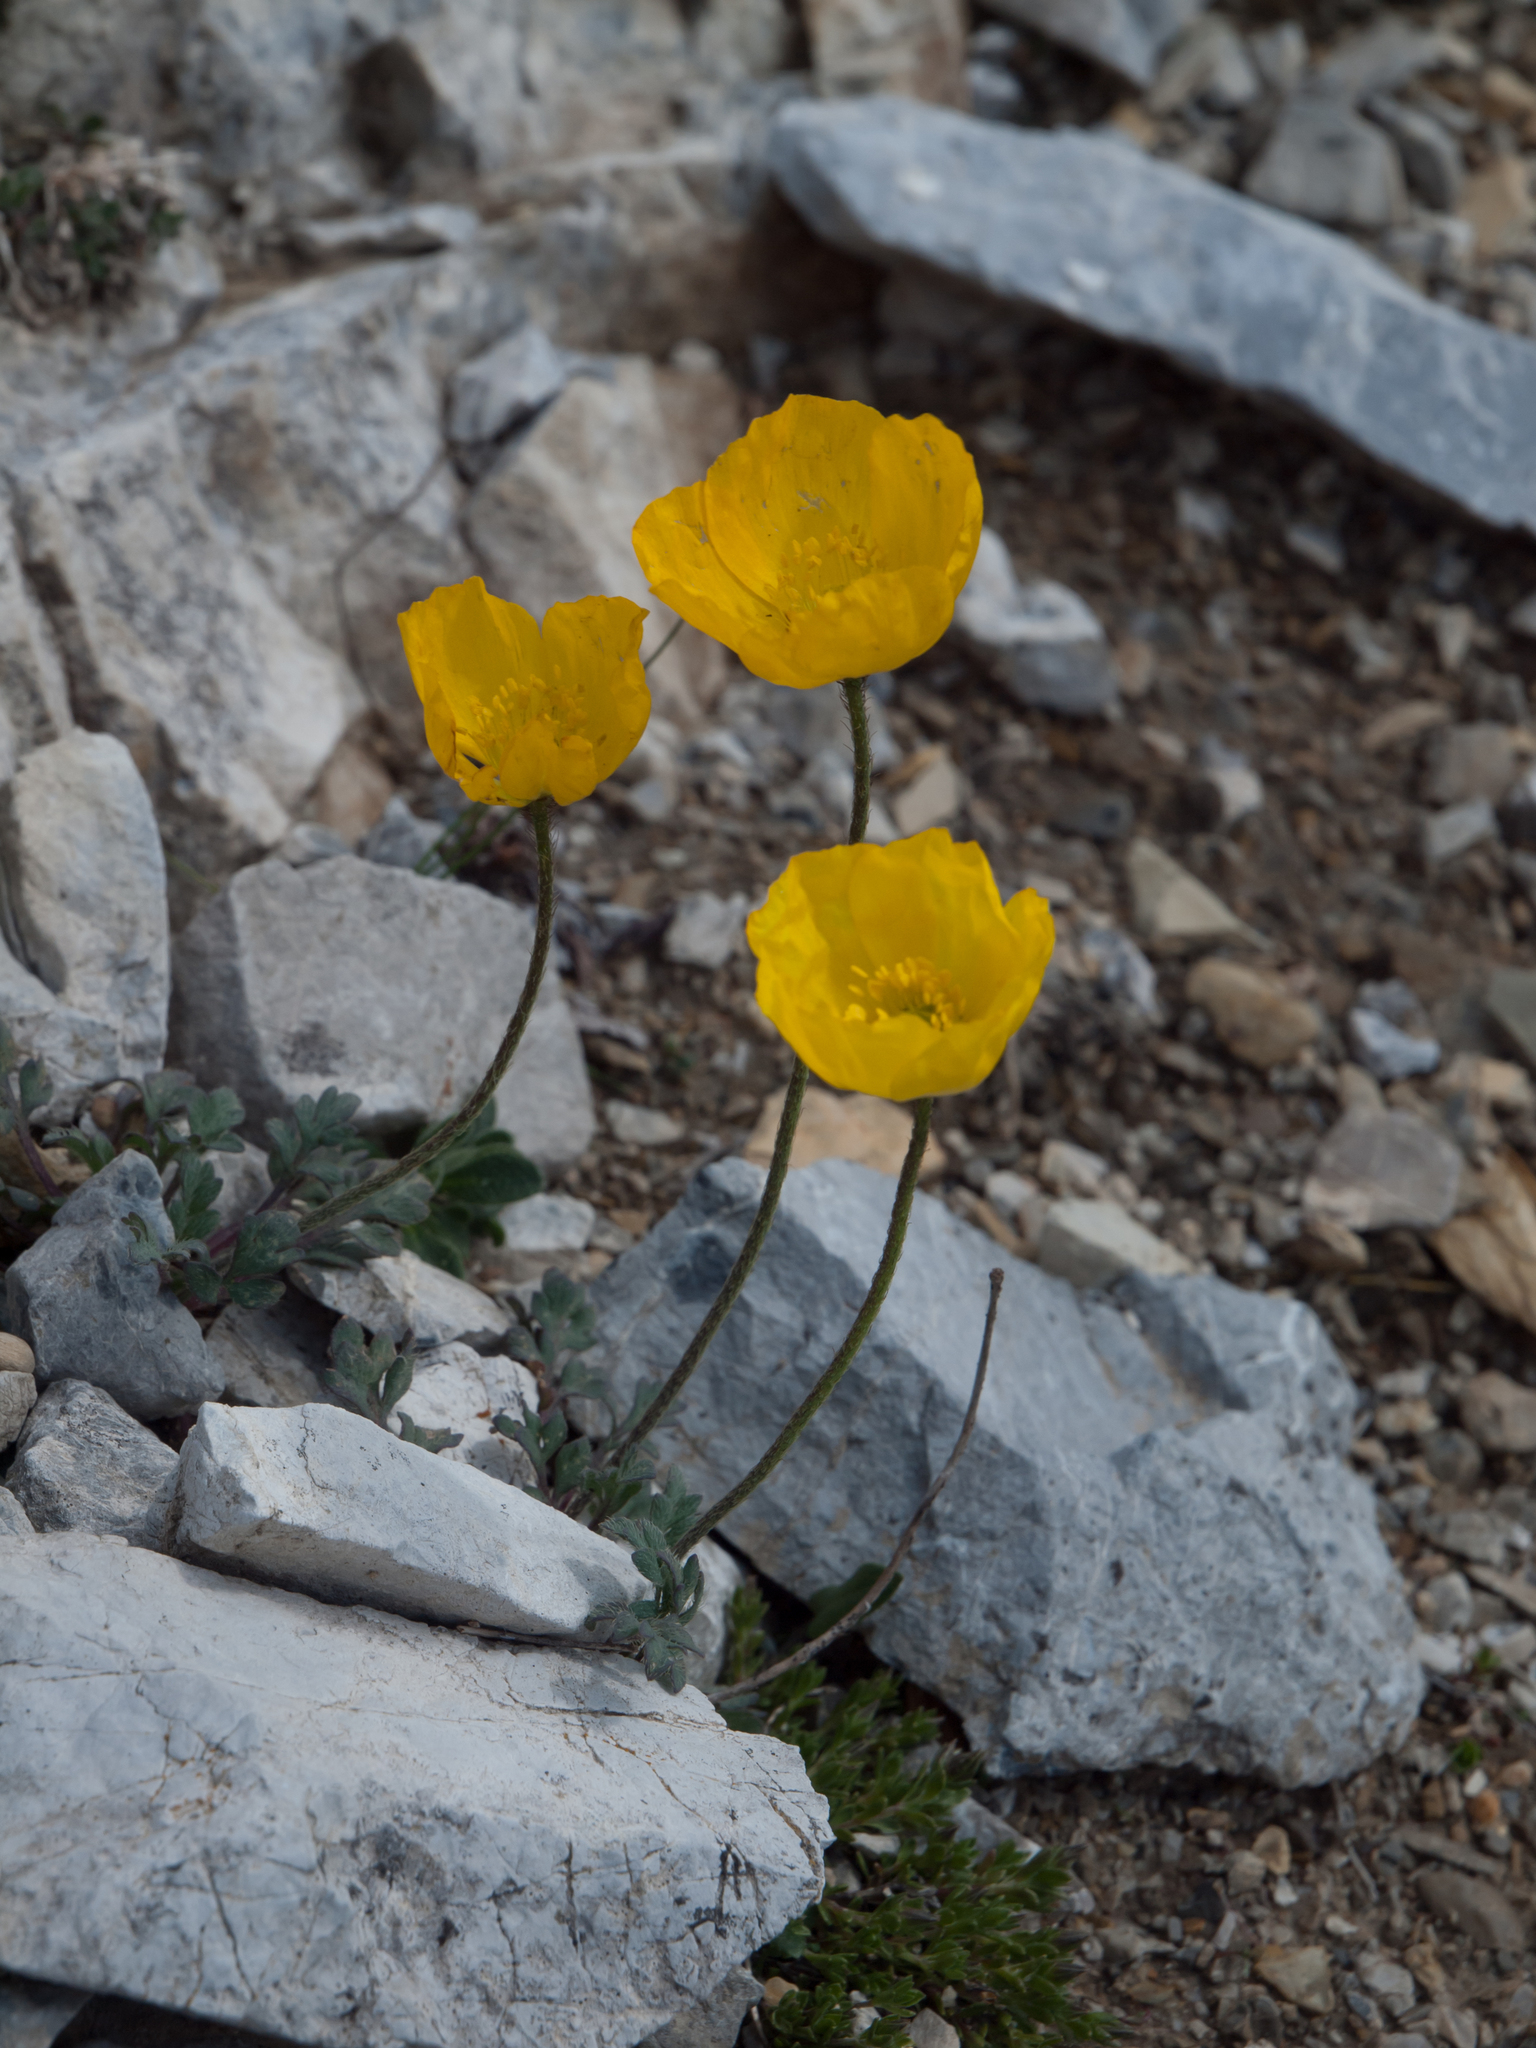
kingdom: Plantae
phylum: Tracheophyta
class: Magnoliopsida
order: Ranunculales
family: Papaveraceae
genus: Papaver
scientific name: Papaver alpinum
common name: Austrian poppy
